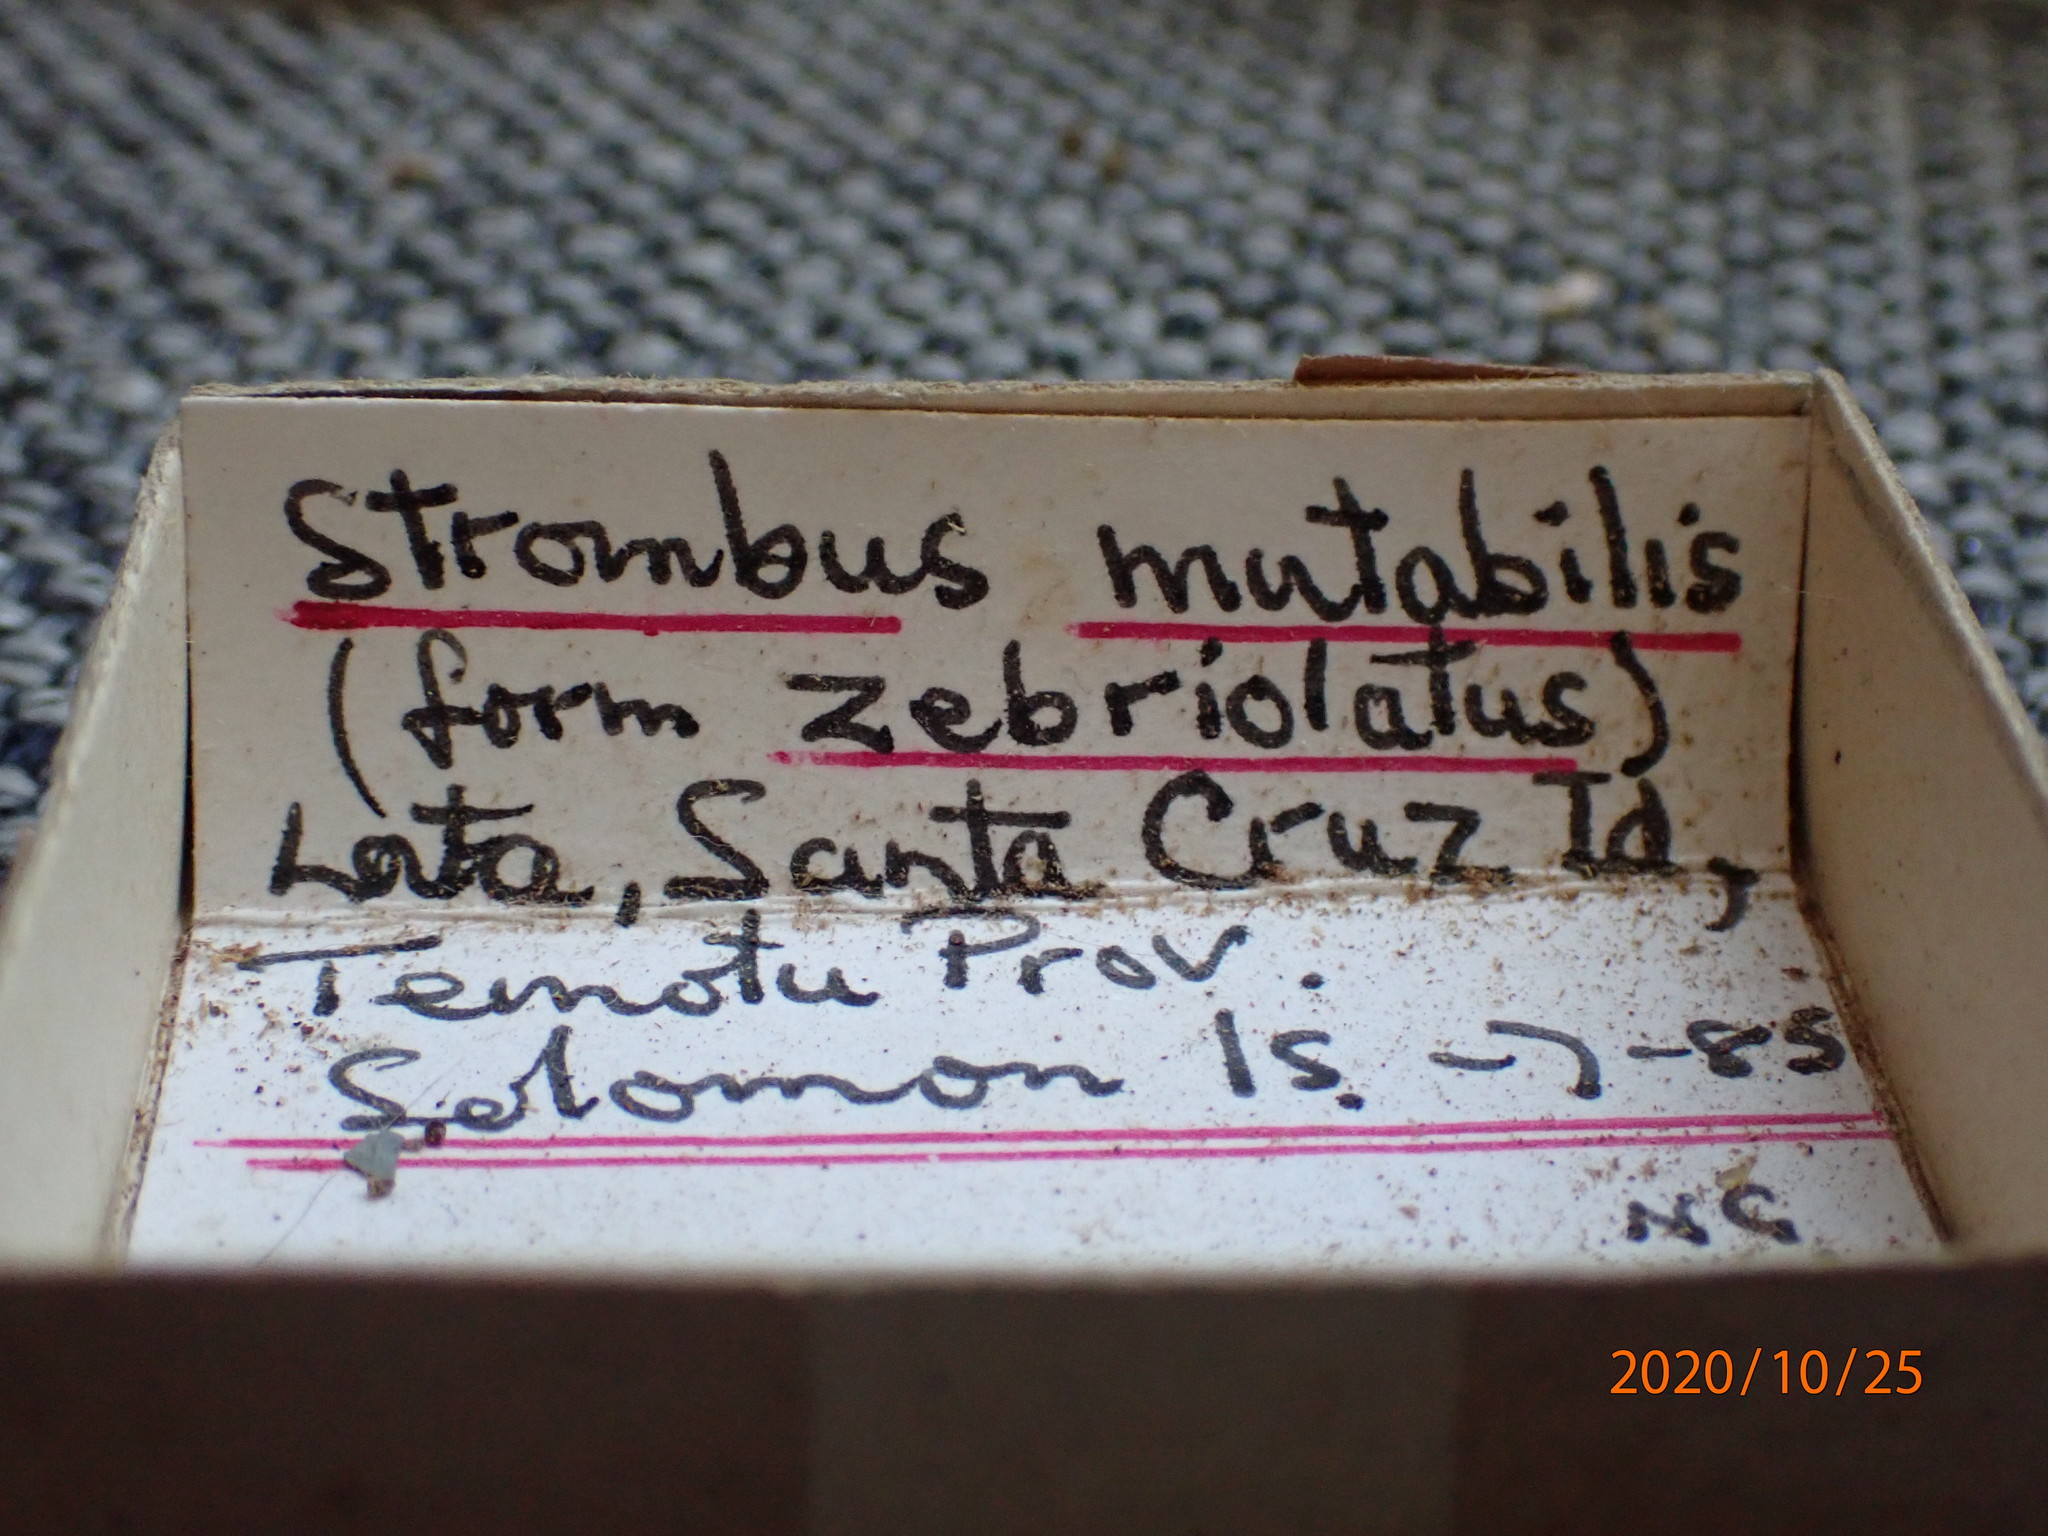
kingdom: Animalia
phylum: Mollusca
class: Gastropoda
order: Littorinimorpha
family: Strombidae
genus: Canarium
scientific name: Canarium mutabile
